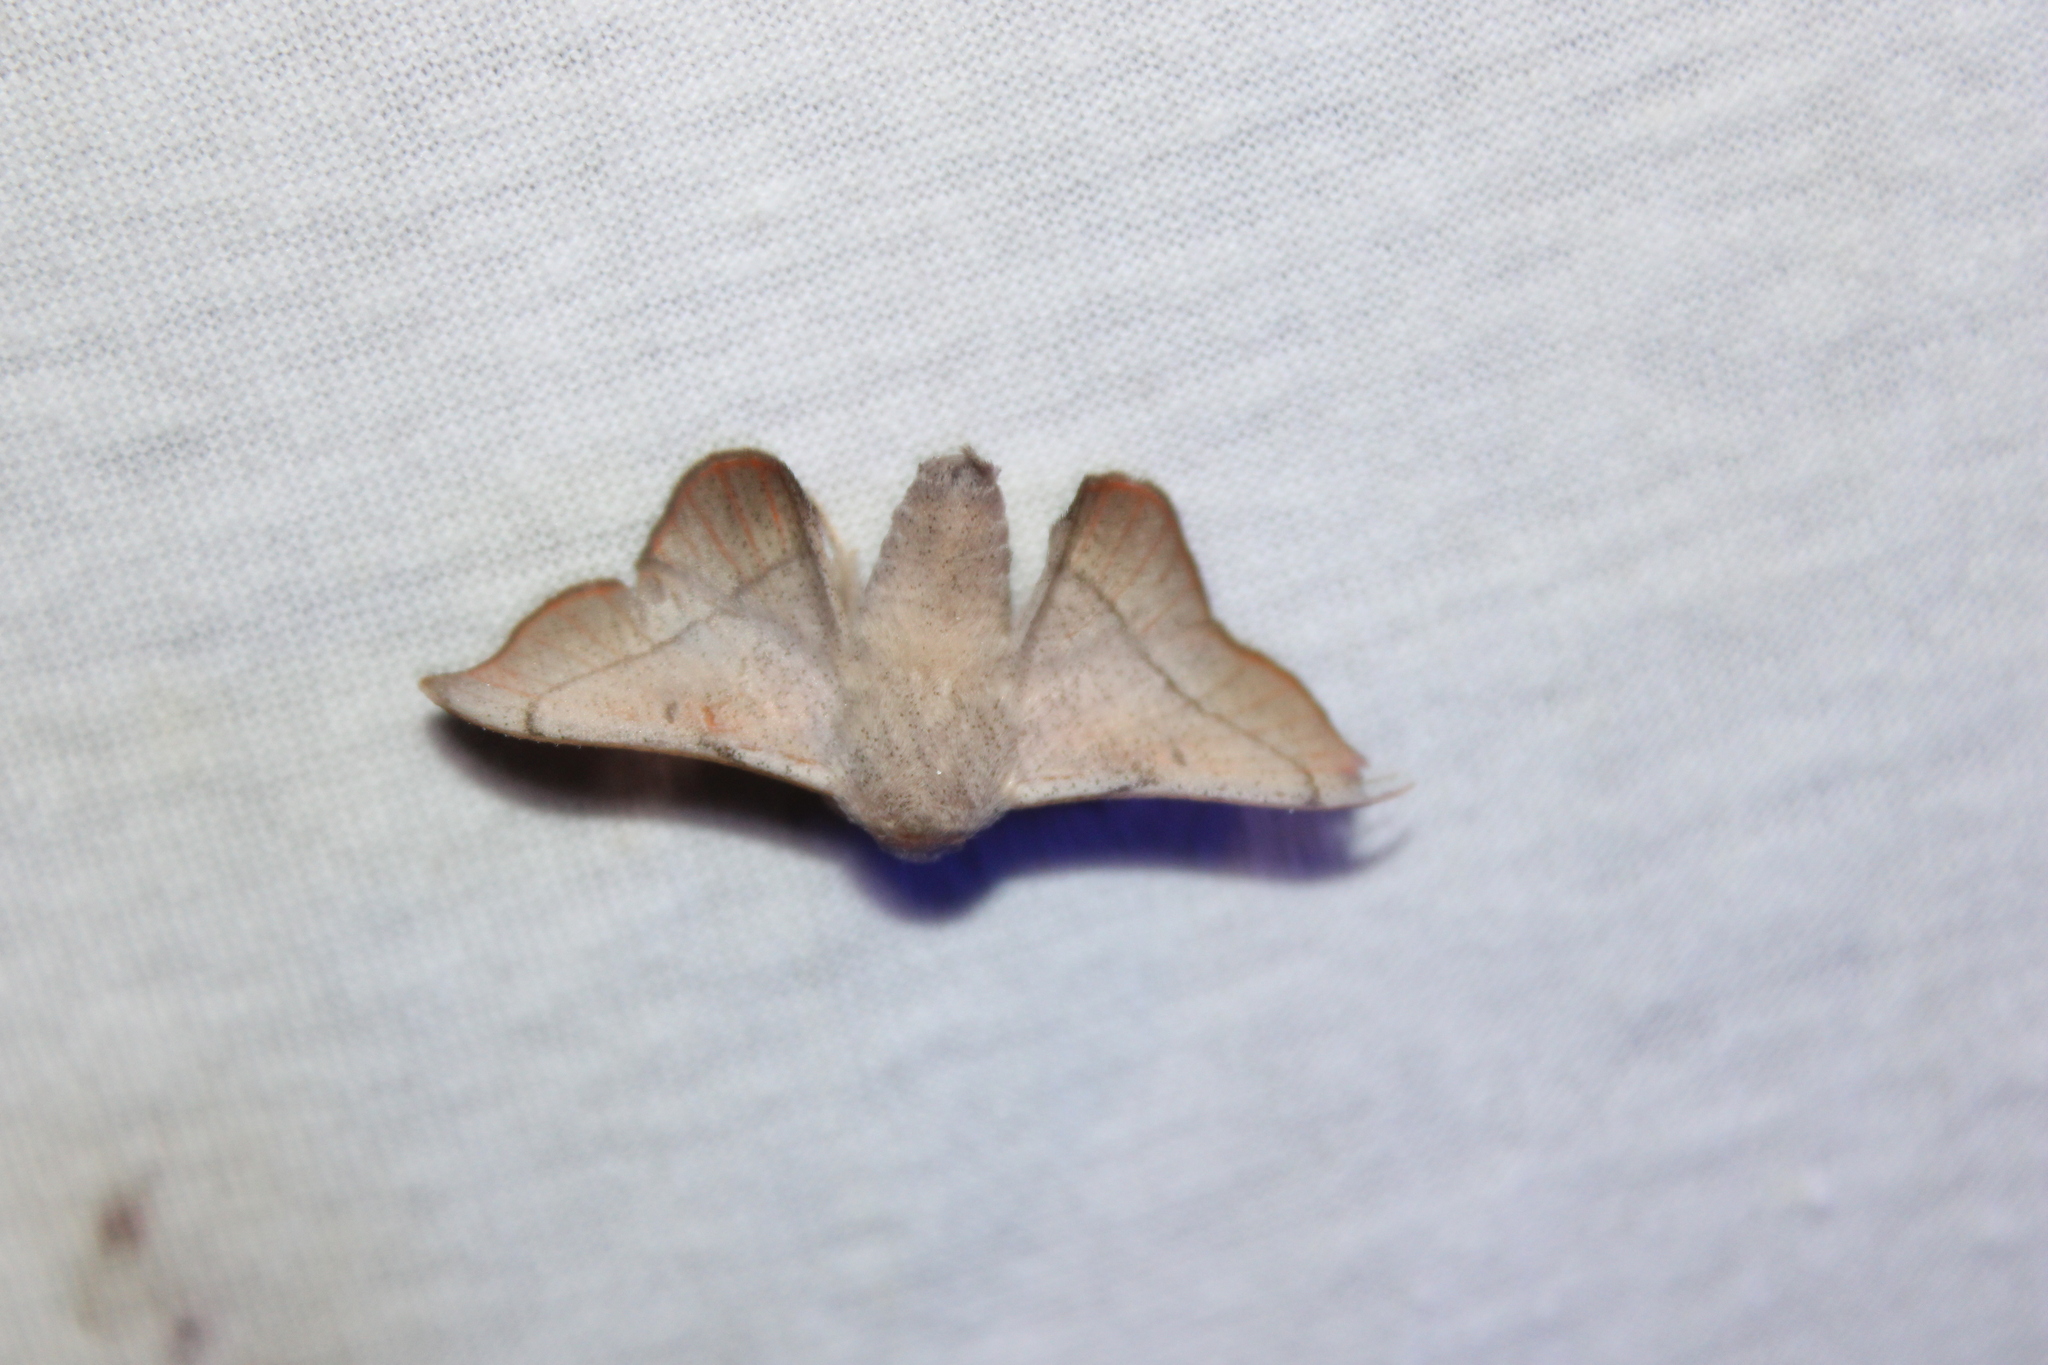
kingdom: Animalia
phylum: Arthropoda
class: Insecta
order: Lepidoptera
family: Mimallonidae
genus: Cicinnus
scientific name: Cicinnus melsheimeri
